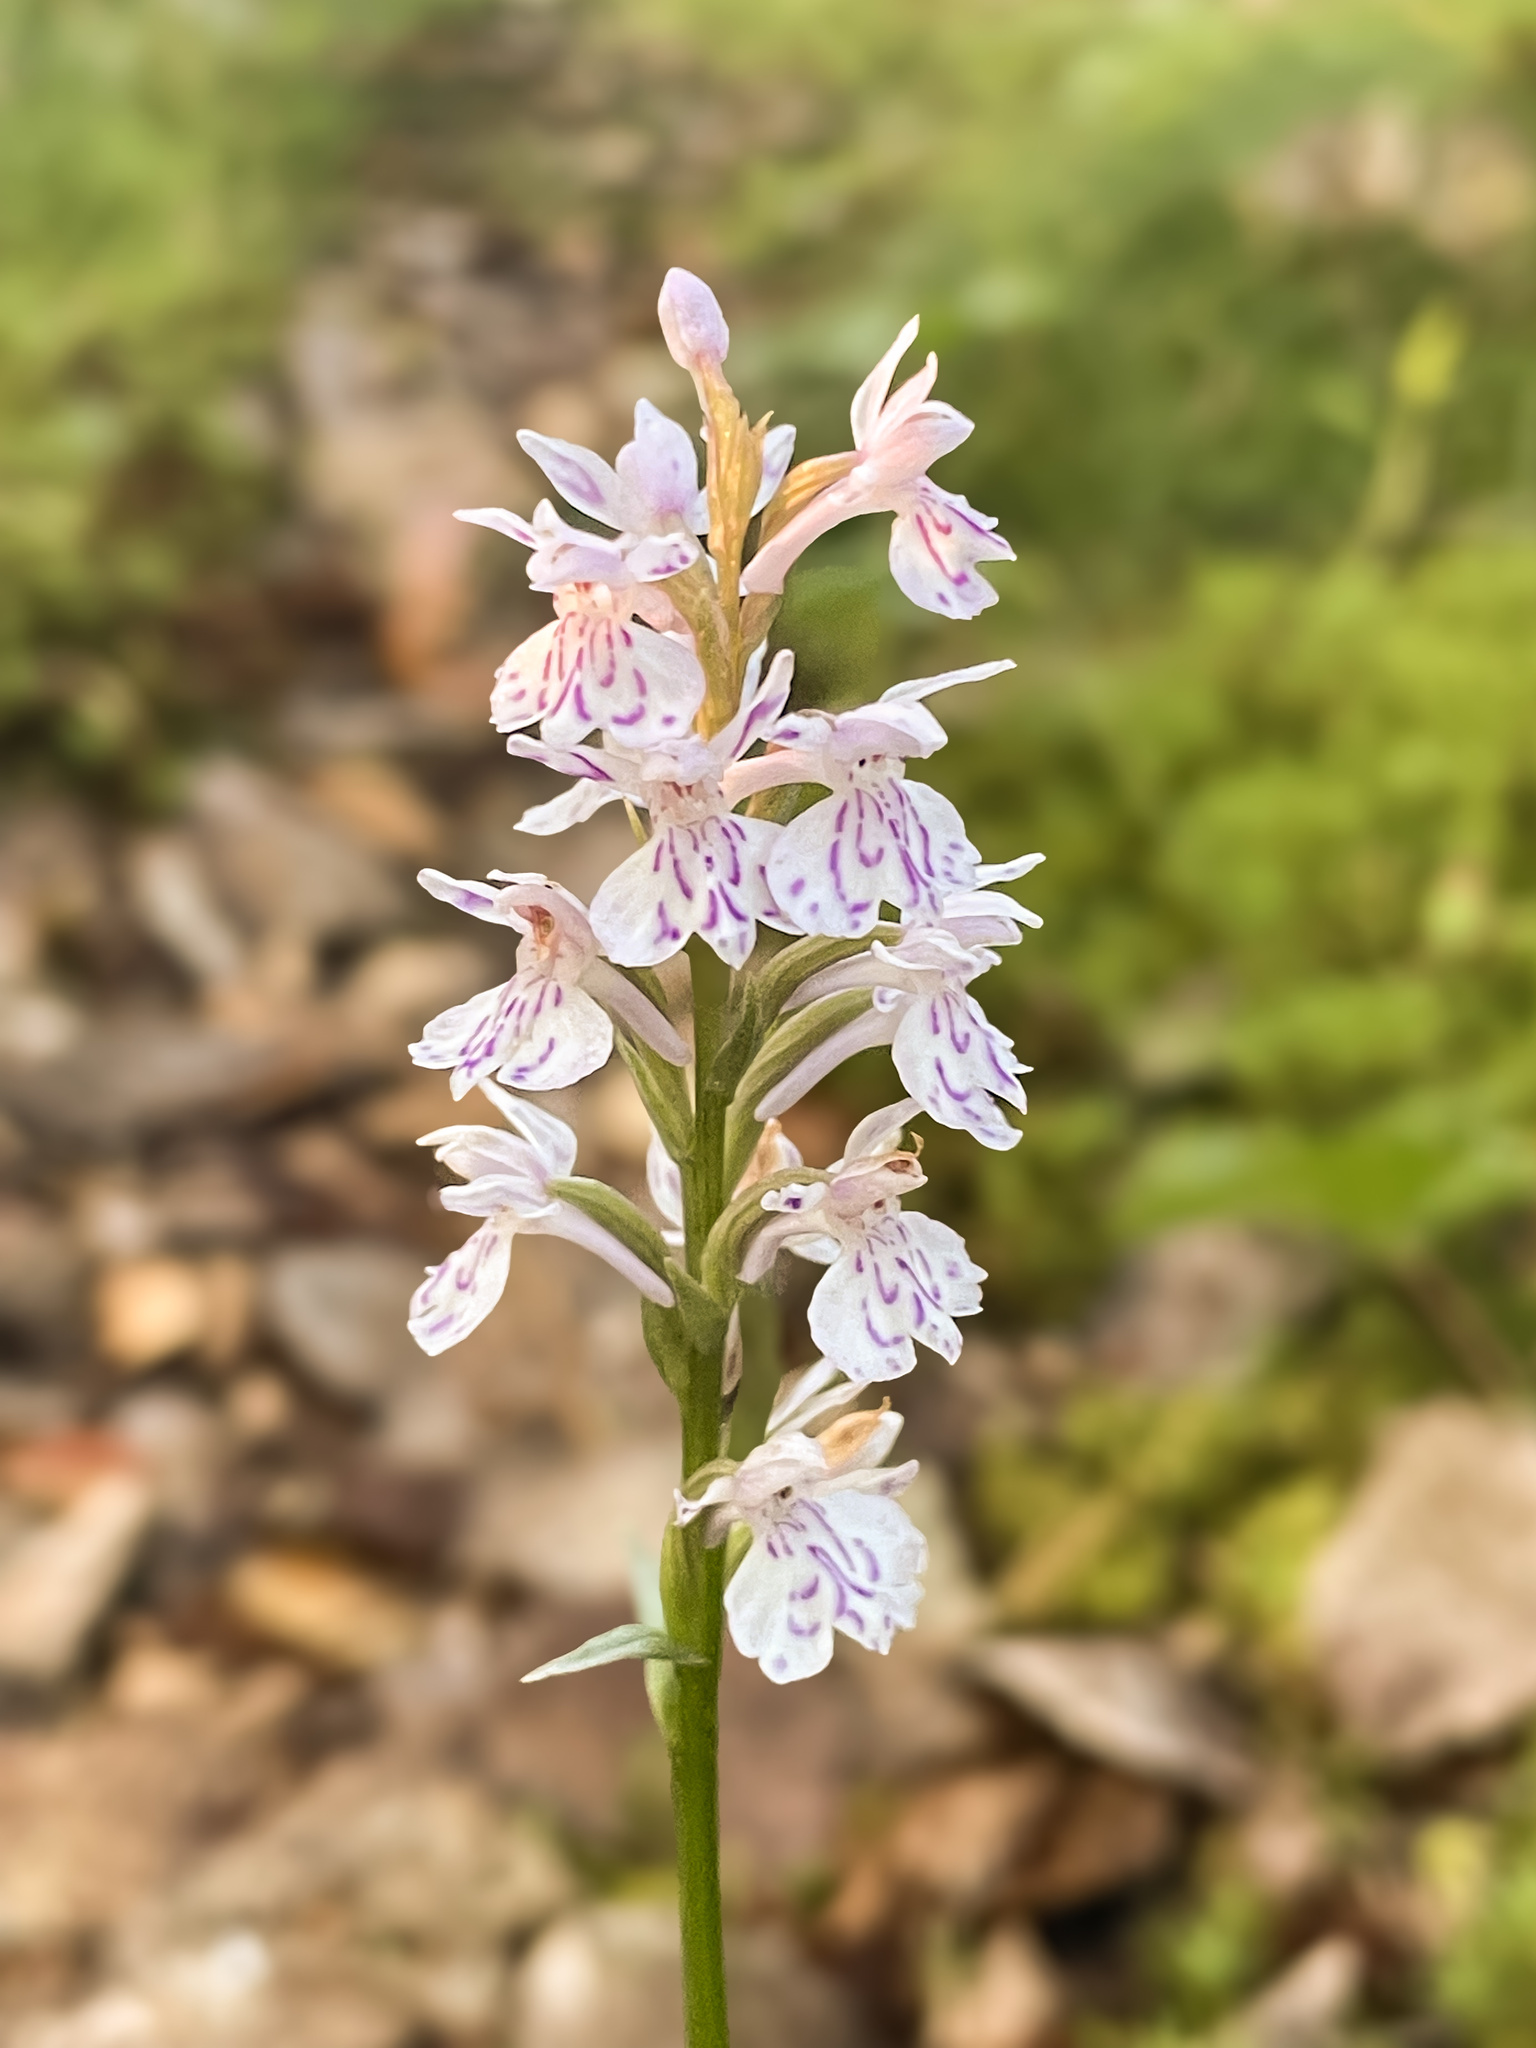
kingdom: Plantae
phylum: Tracheophyta
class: Liliopsida
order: Asparagales
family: Orchidaceae
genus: Dactylorhiza
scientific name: Dactylorhiza maculata
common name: Heath spotted-orchid
